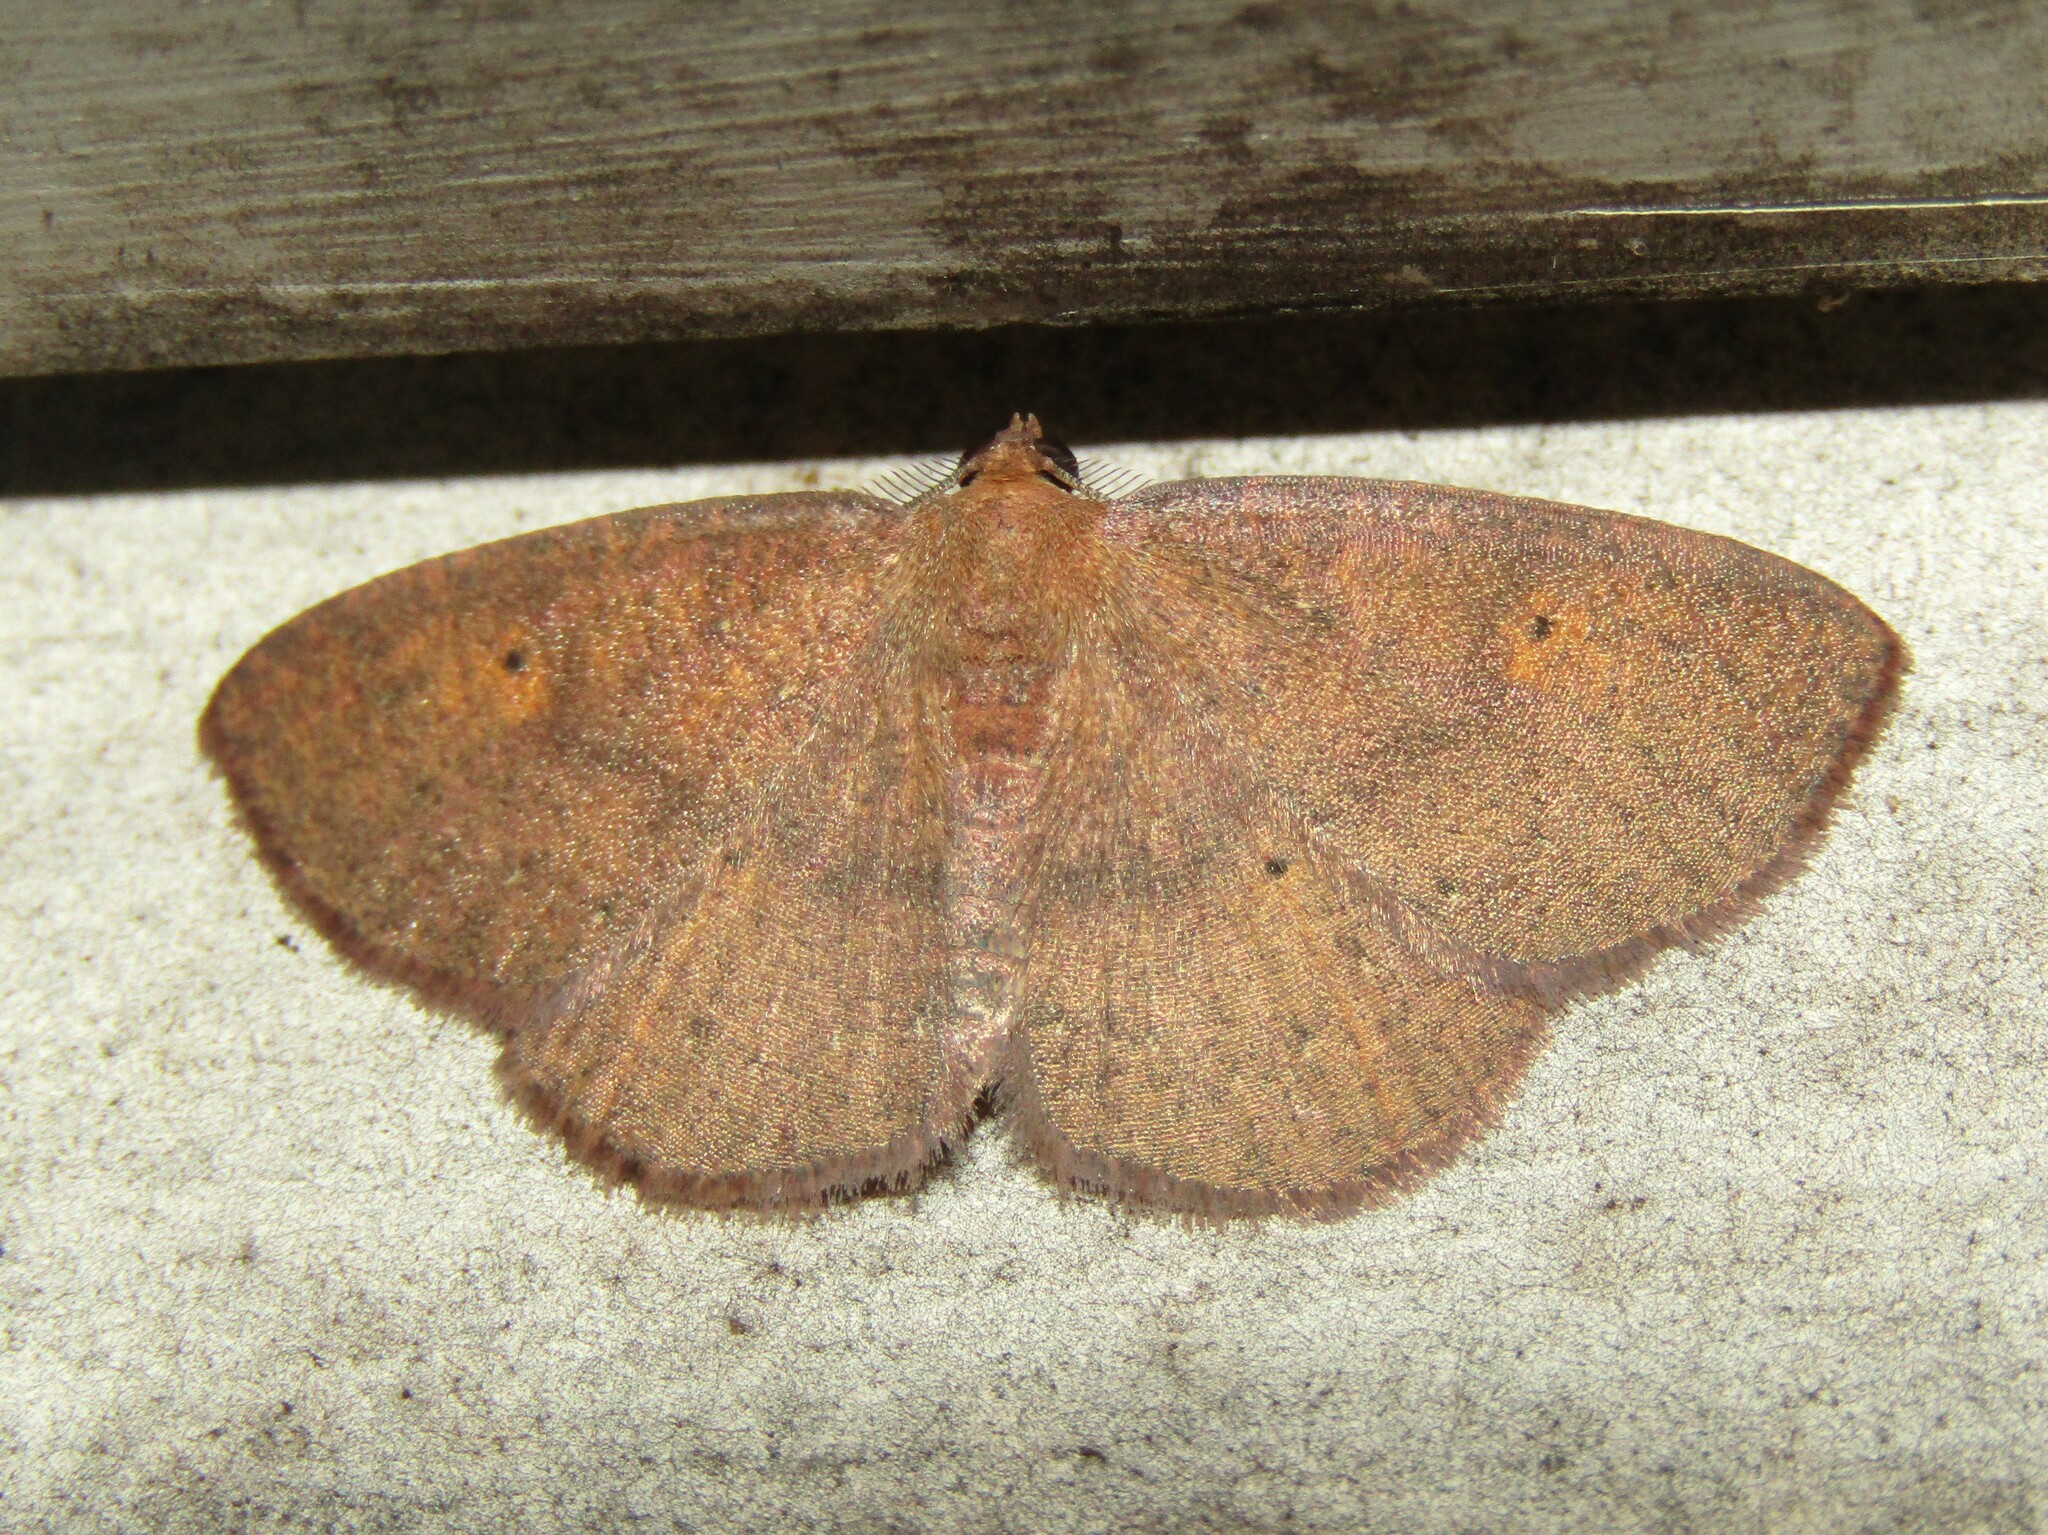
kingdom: Animalia
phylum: Arthropoda
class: Insecta
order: Lepidoptera
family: Geometridae
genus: Ilexia
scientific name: Ilexia intractata
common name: Black-dotted ruddy moth
